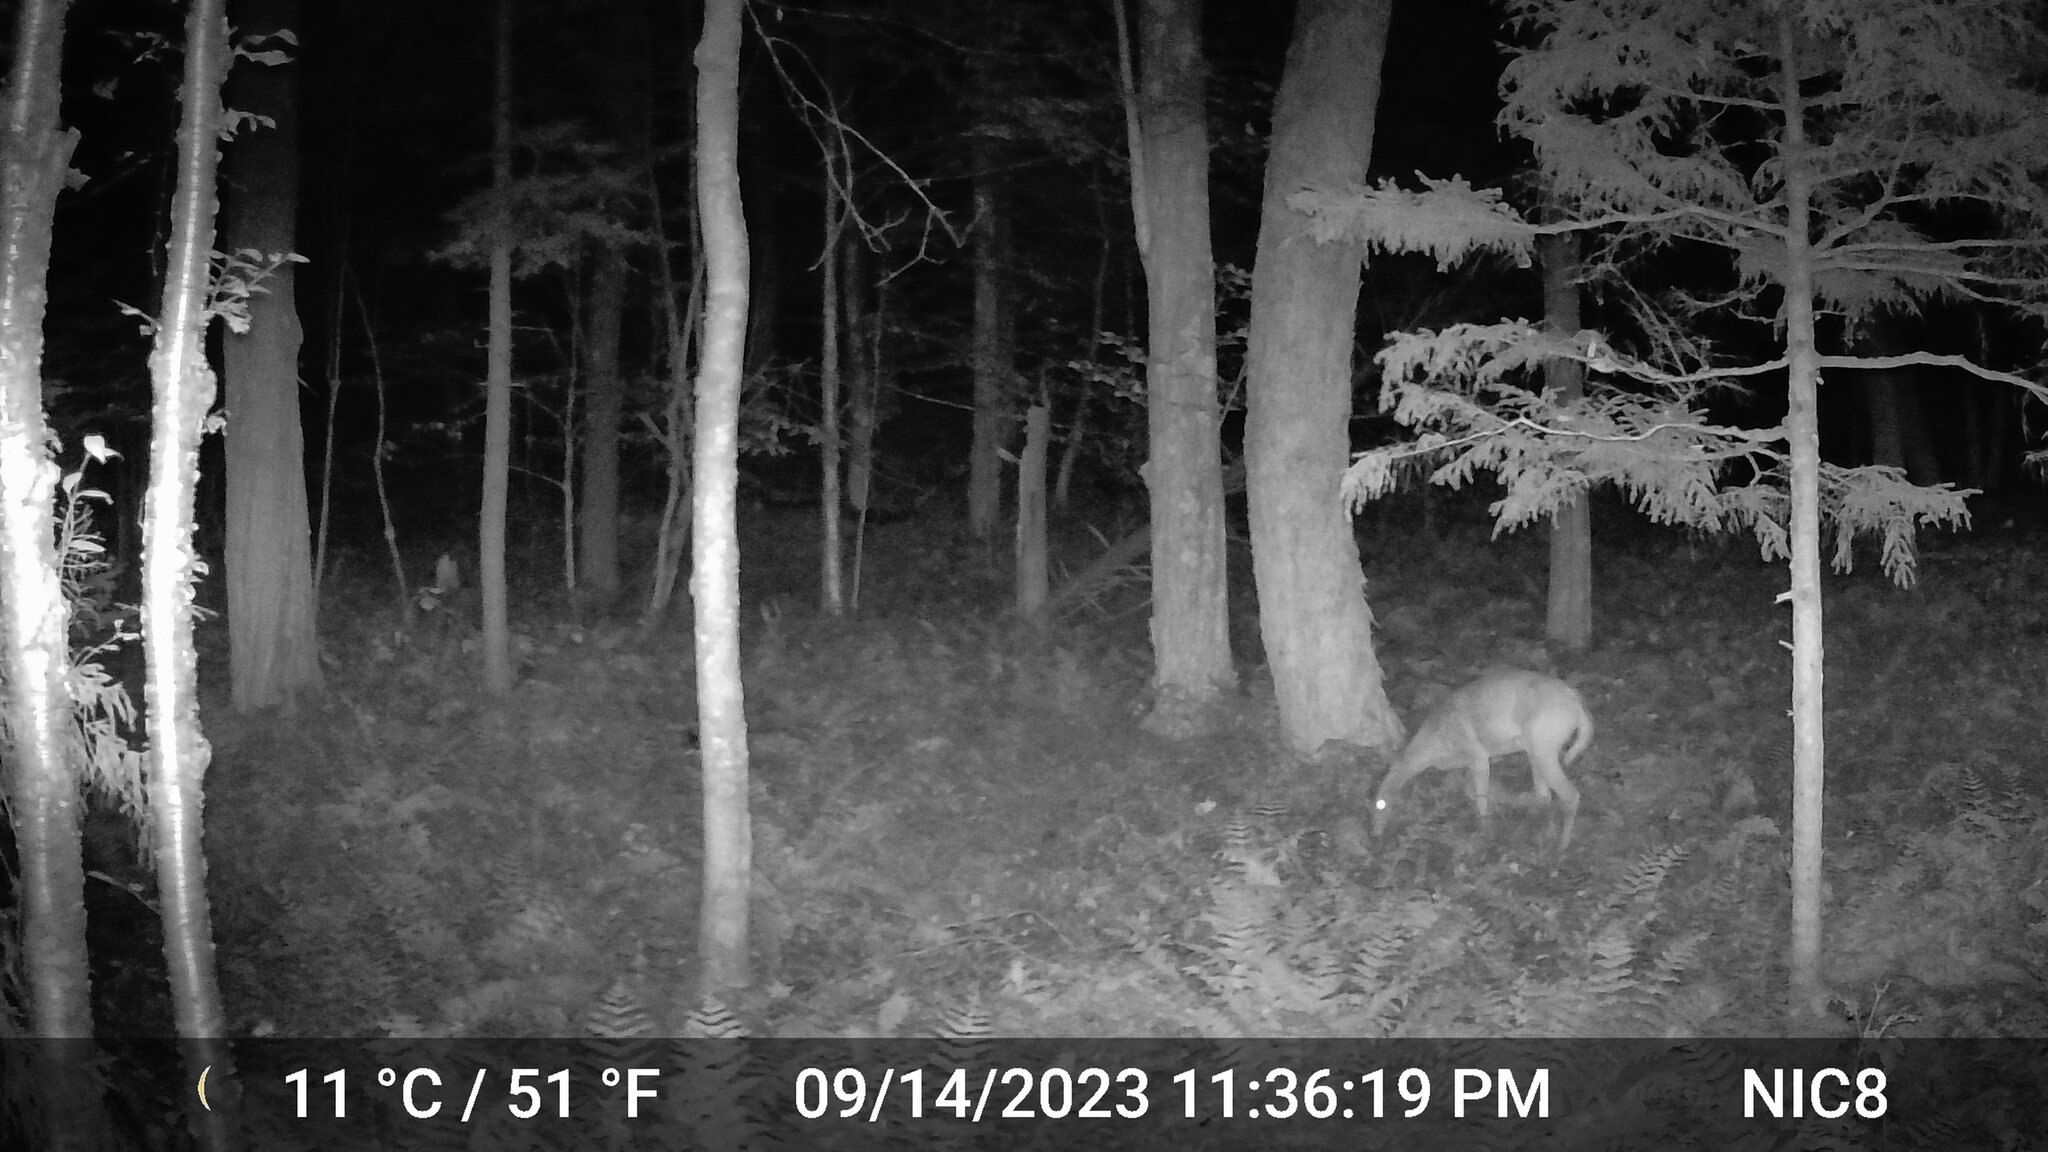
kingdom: Animalia
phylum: Chordata
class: Mammalia
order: Artiodactyla
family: Cervidae
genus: Odocoileus
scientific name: Odocoileus virginianus
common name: White-tailed deer
